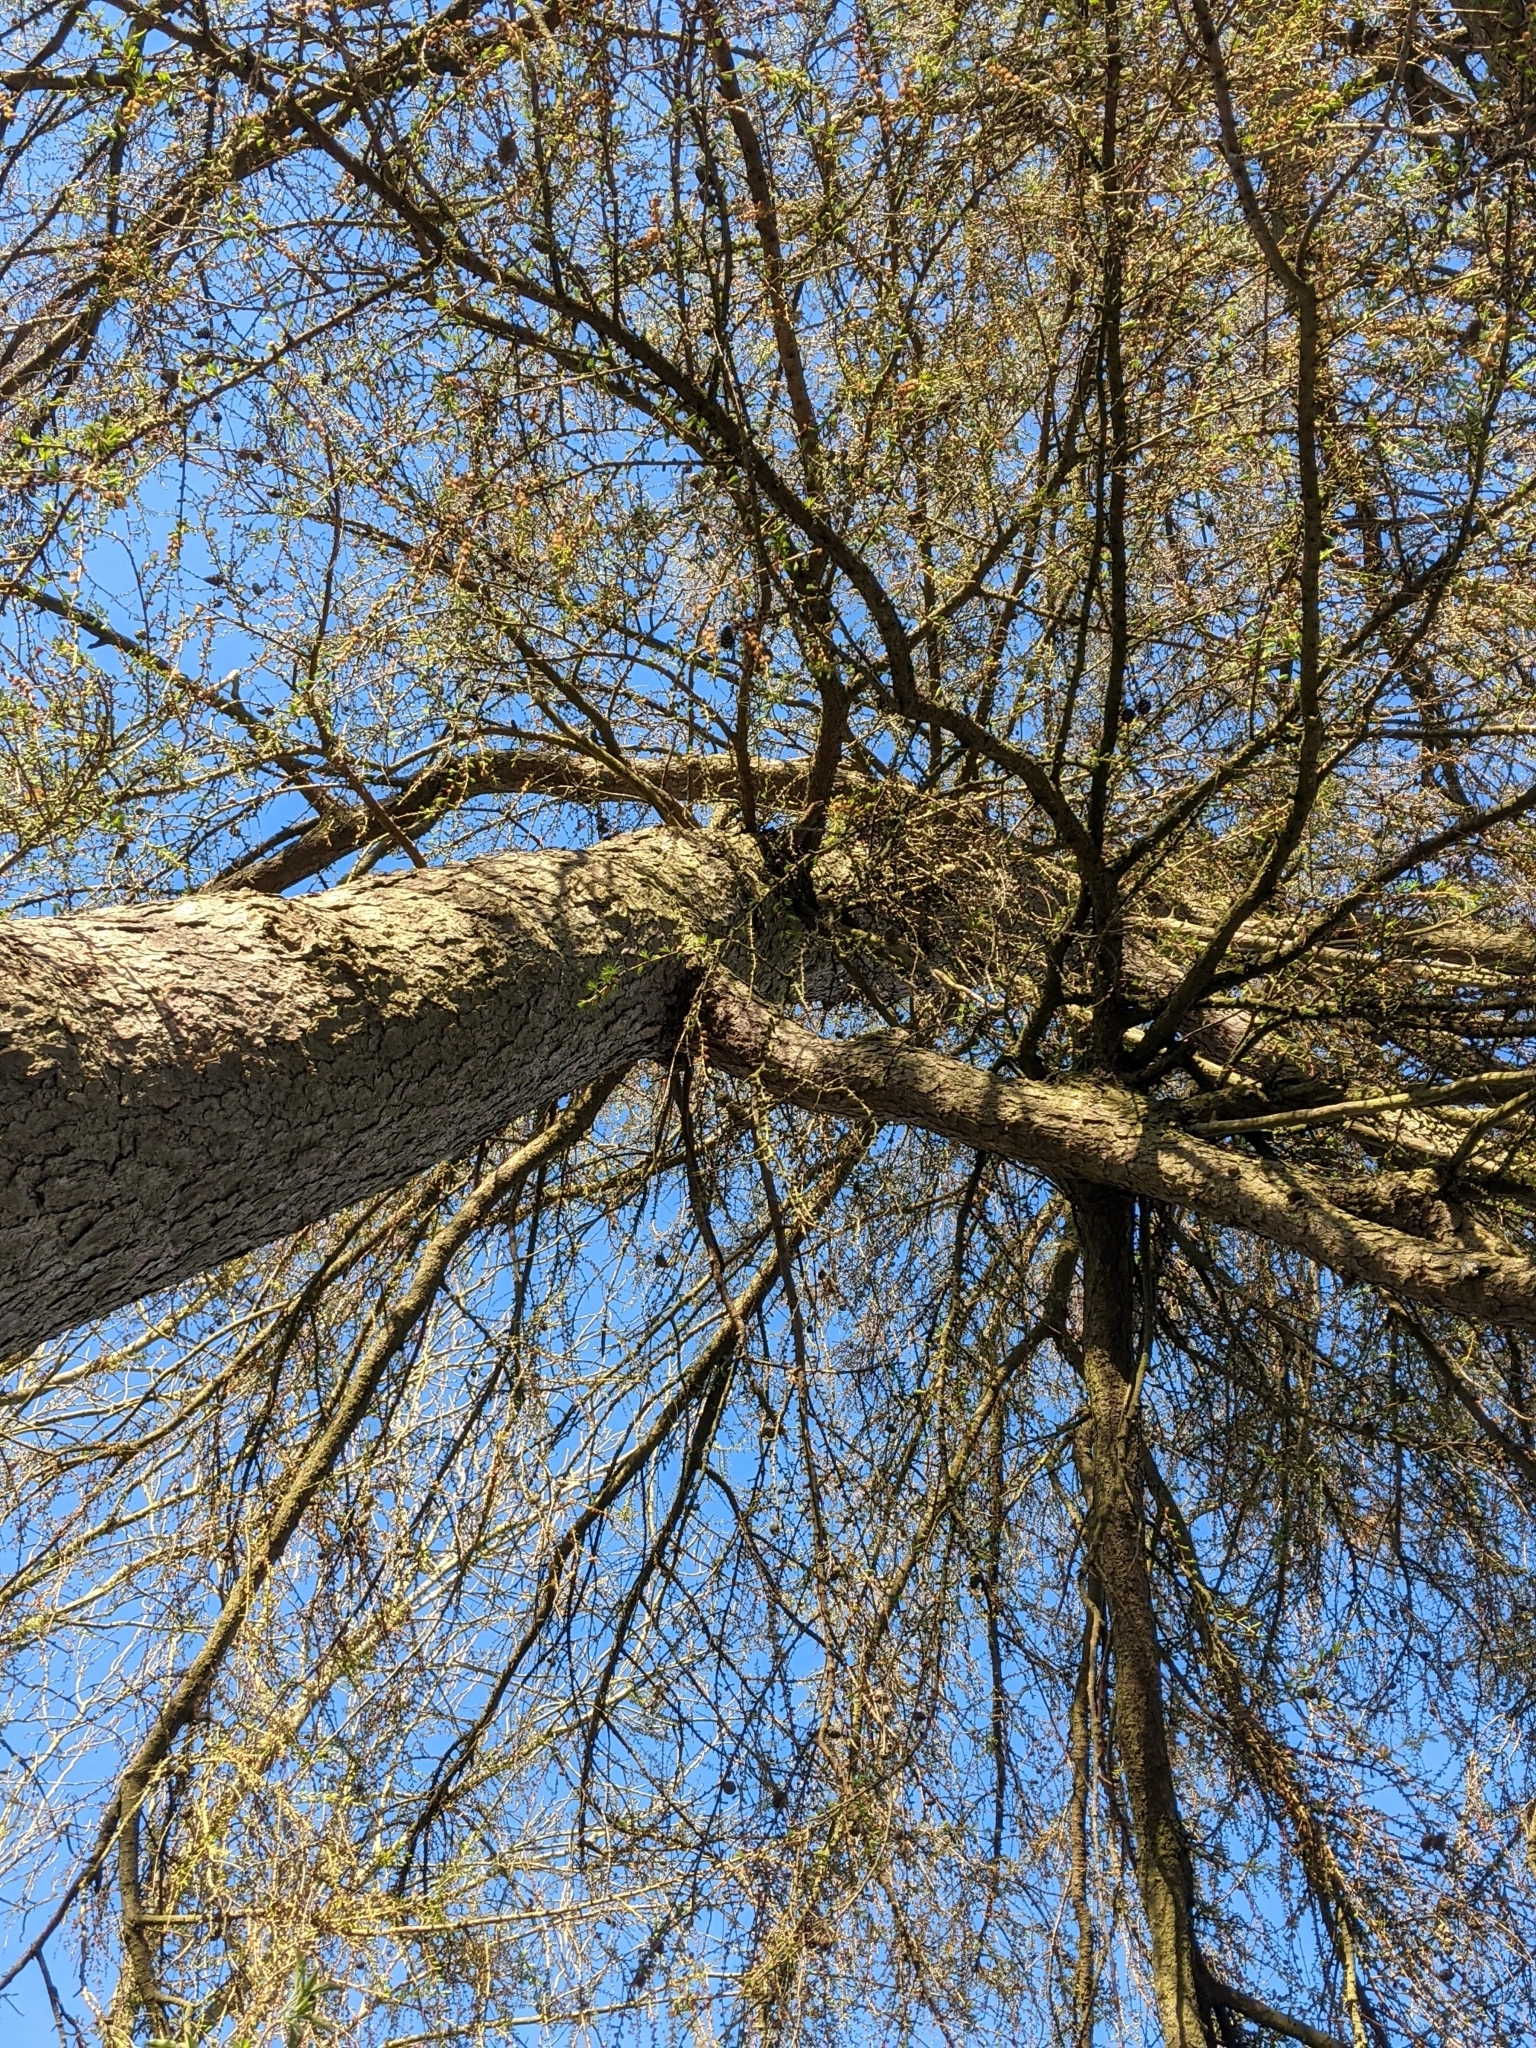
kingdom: Plantae
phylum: Tracheophyta
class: Pinopsida
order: Pinales
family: Pinaceae
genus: Larix
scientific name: Larix decidua
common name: European larch
